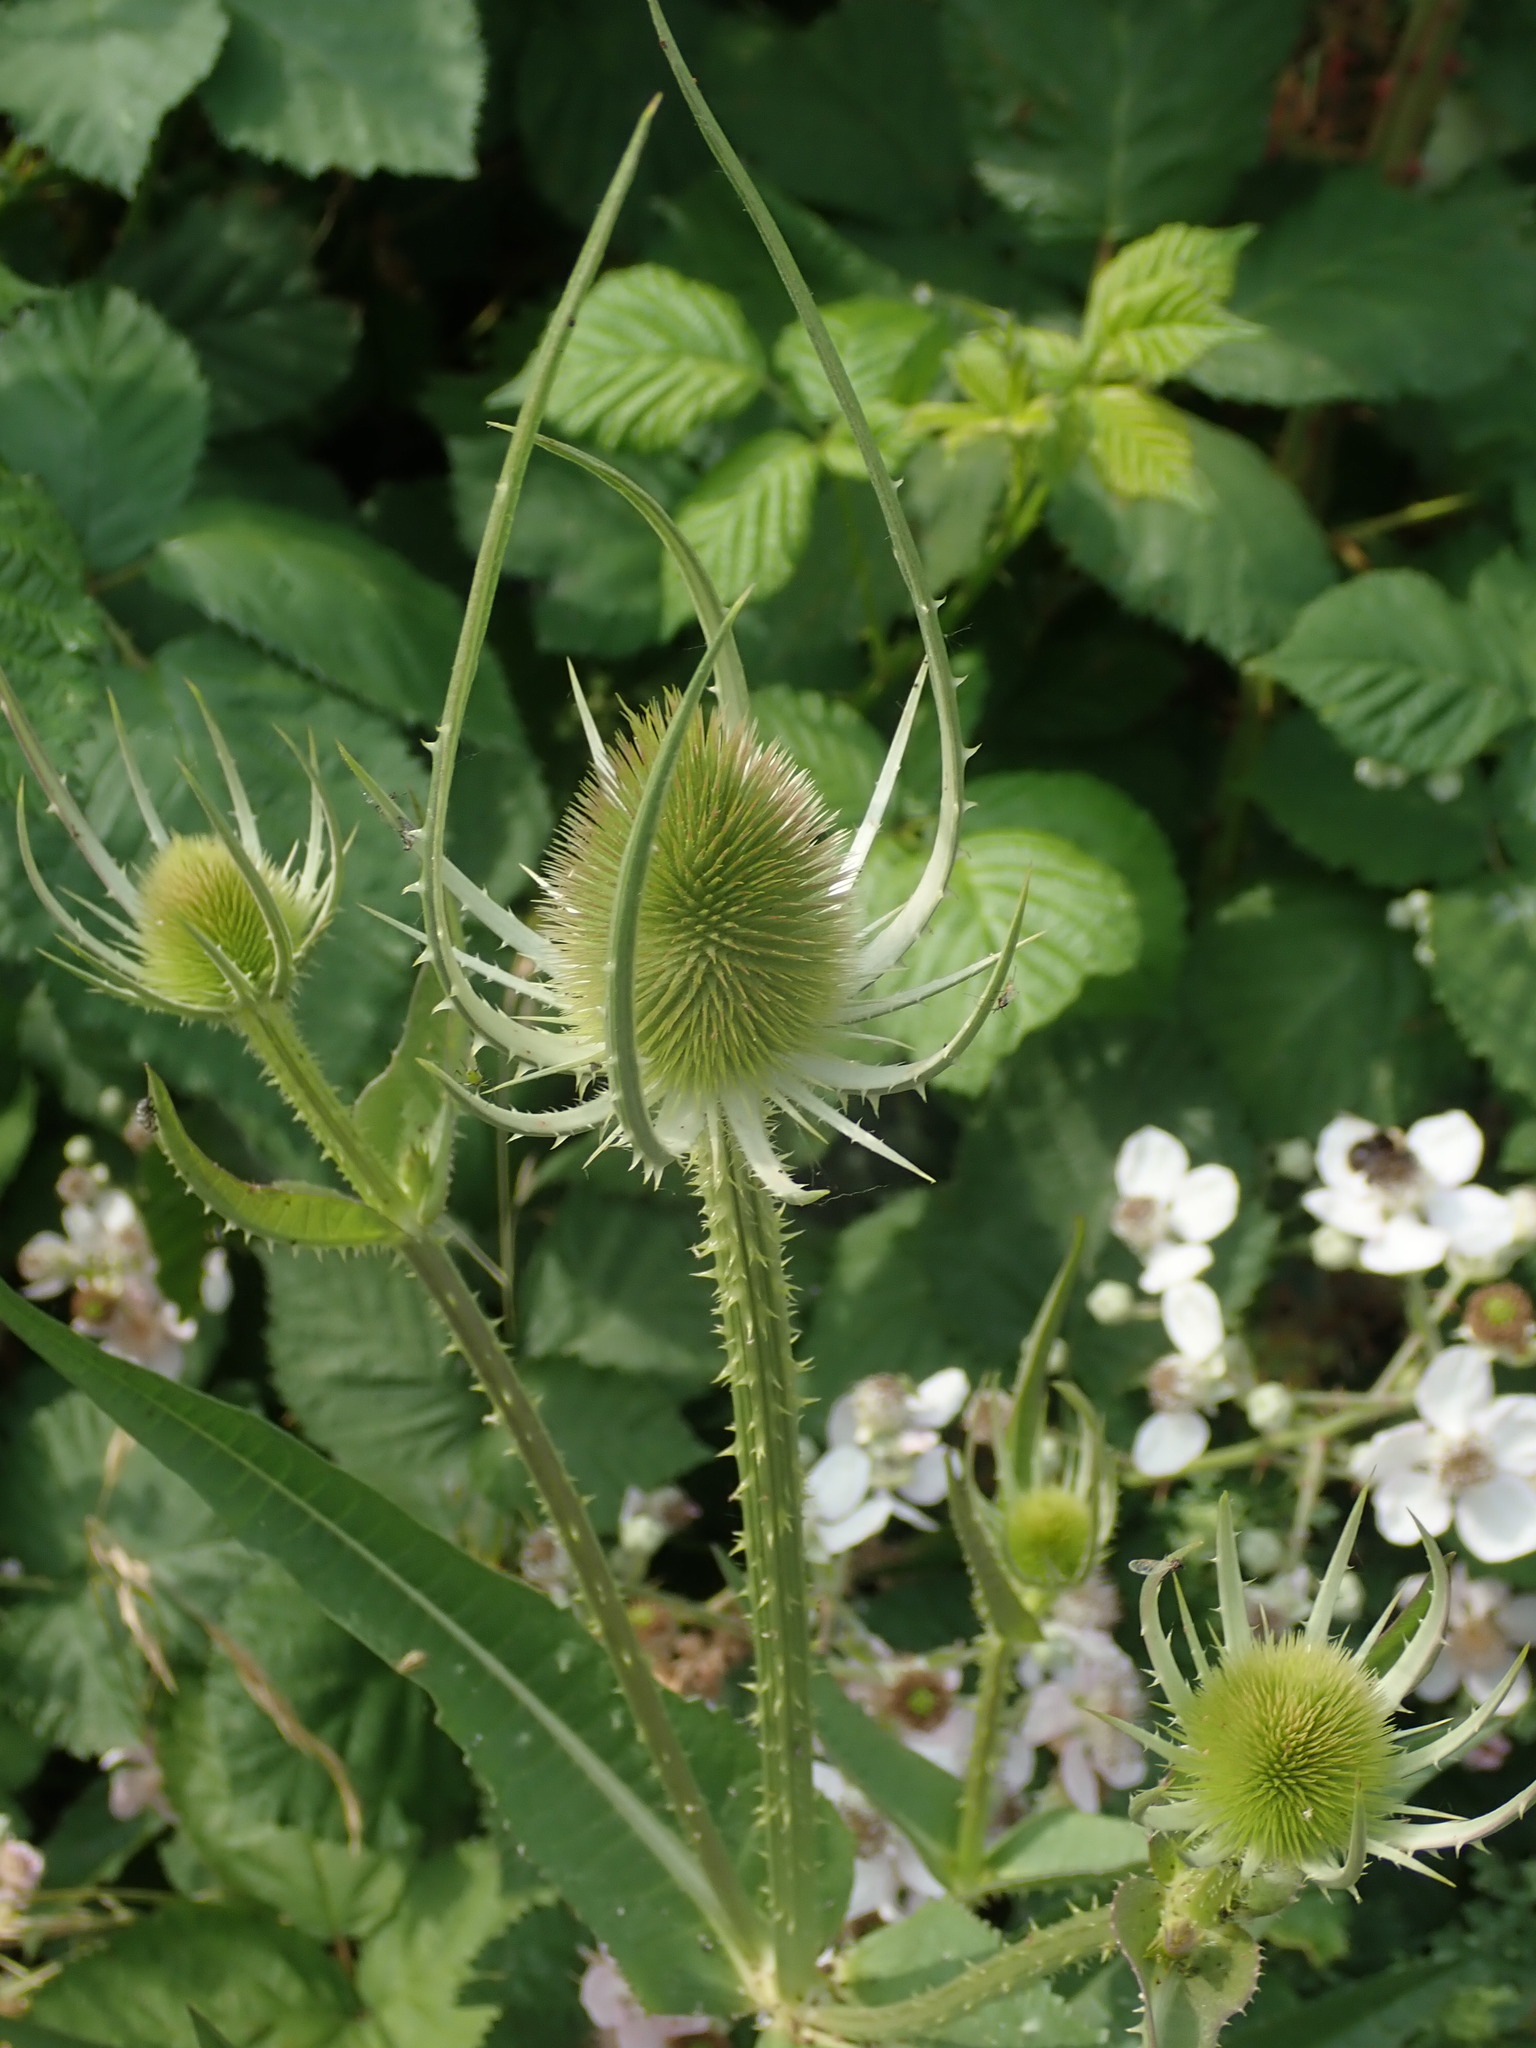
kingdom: Plantae
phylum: Tracheophyta
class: Magnoliopsida
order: Dipsacales
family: Caprifoliaceae
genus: Dipsacus
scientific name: Dipsacus fullonum
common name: Teasel
